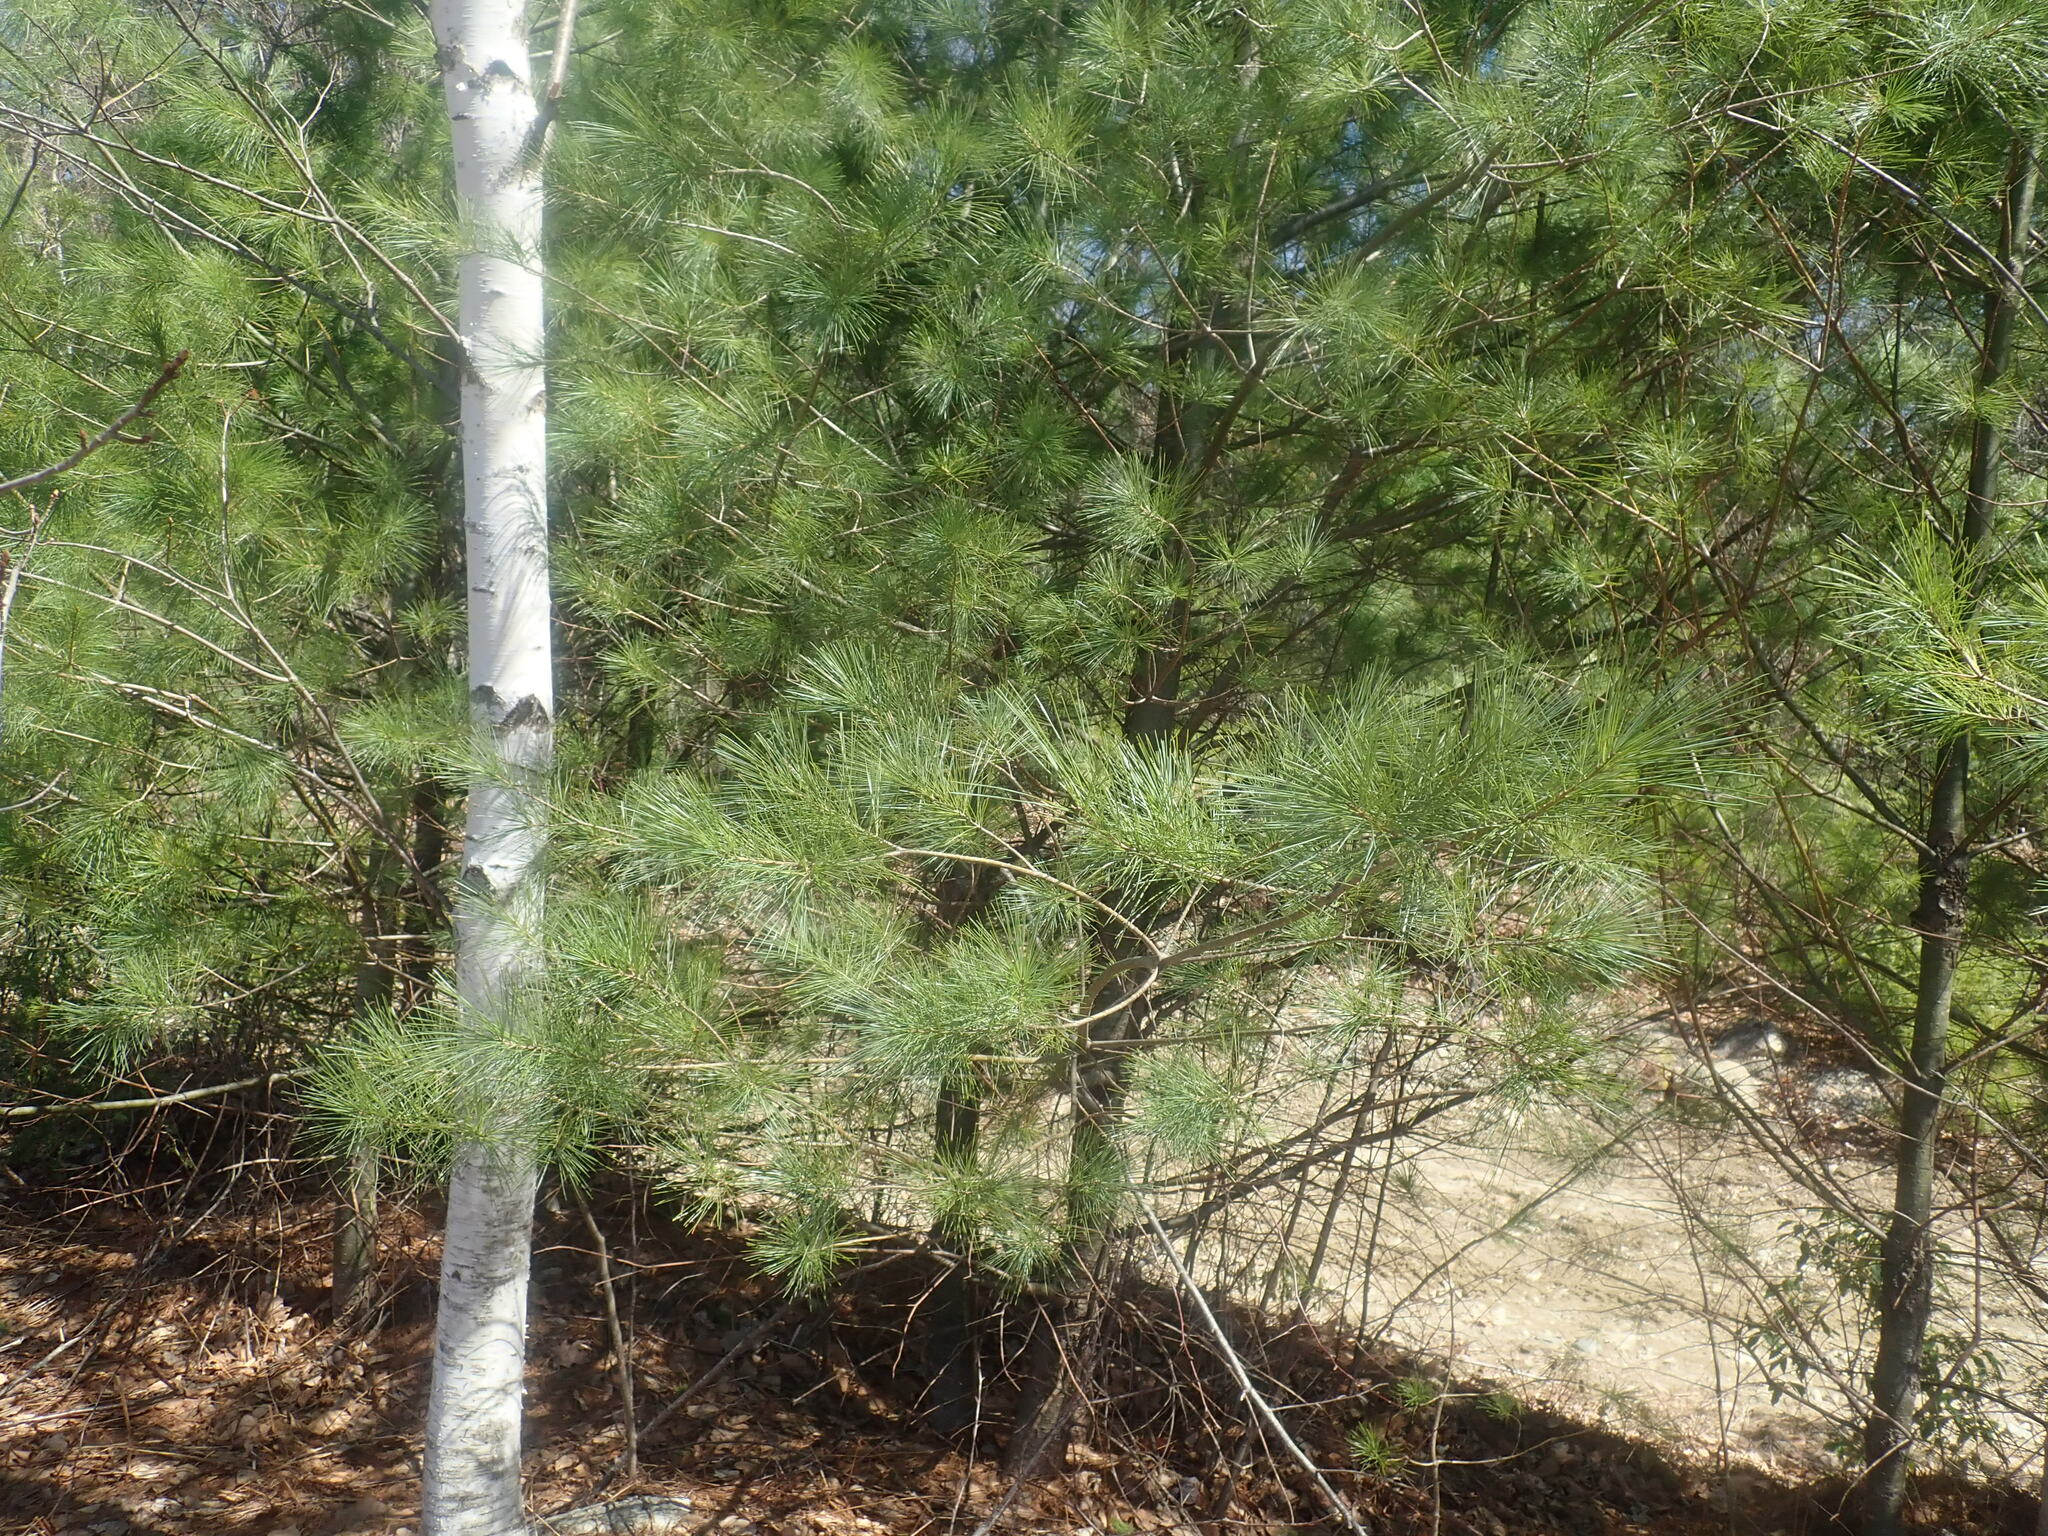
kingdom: Plantae
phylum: Tracheophyta
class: Pinopsida
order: Pinales
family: Pinaceae
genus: Pinus
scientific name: Pinus strobus
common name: Weymouth pine
